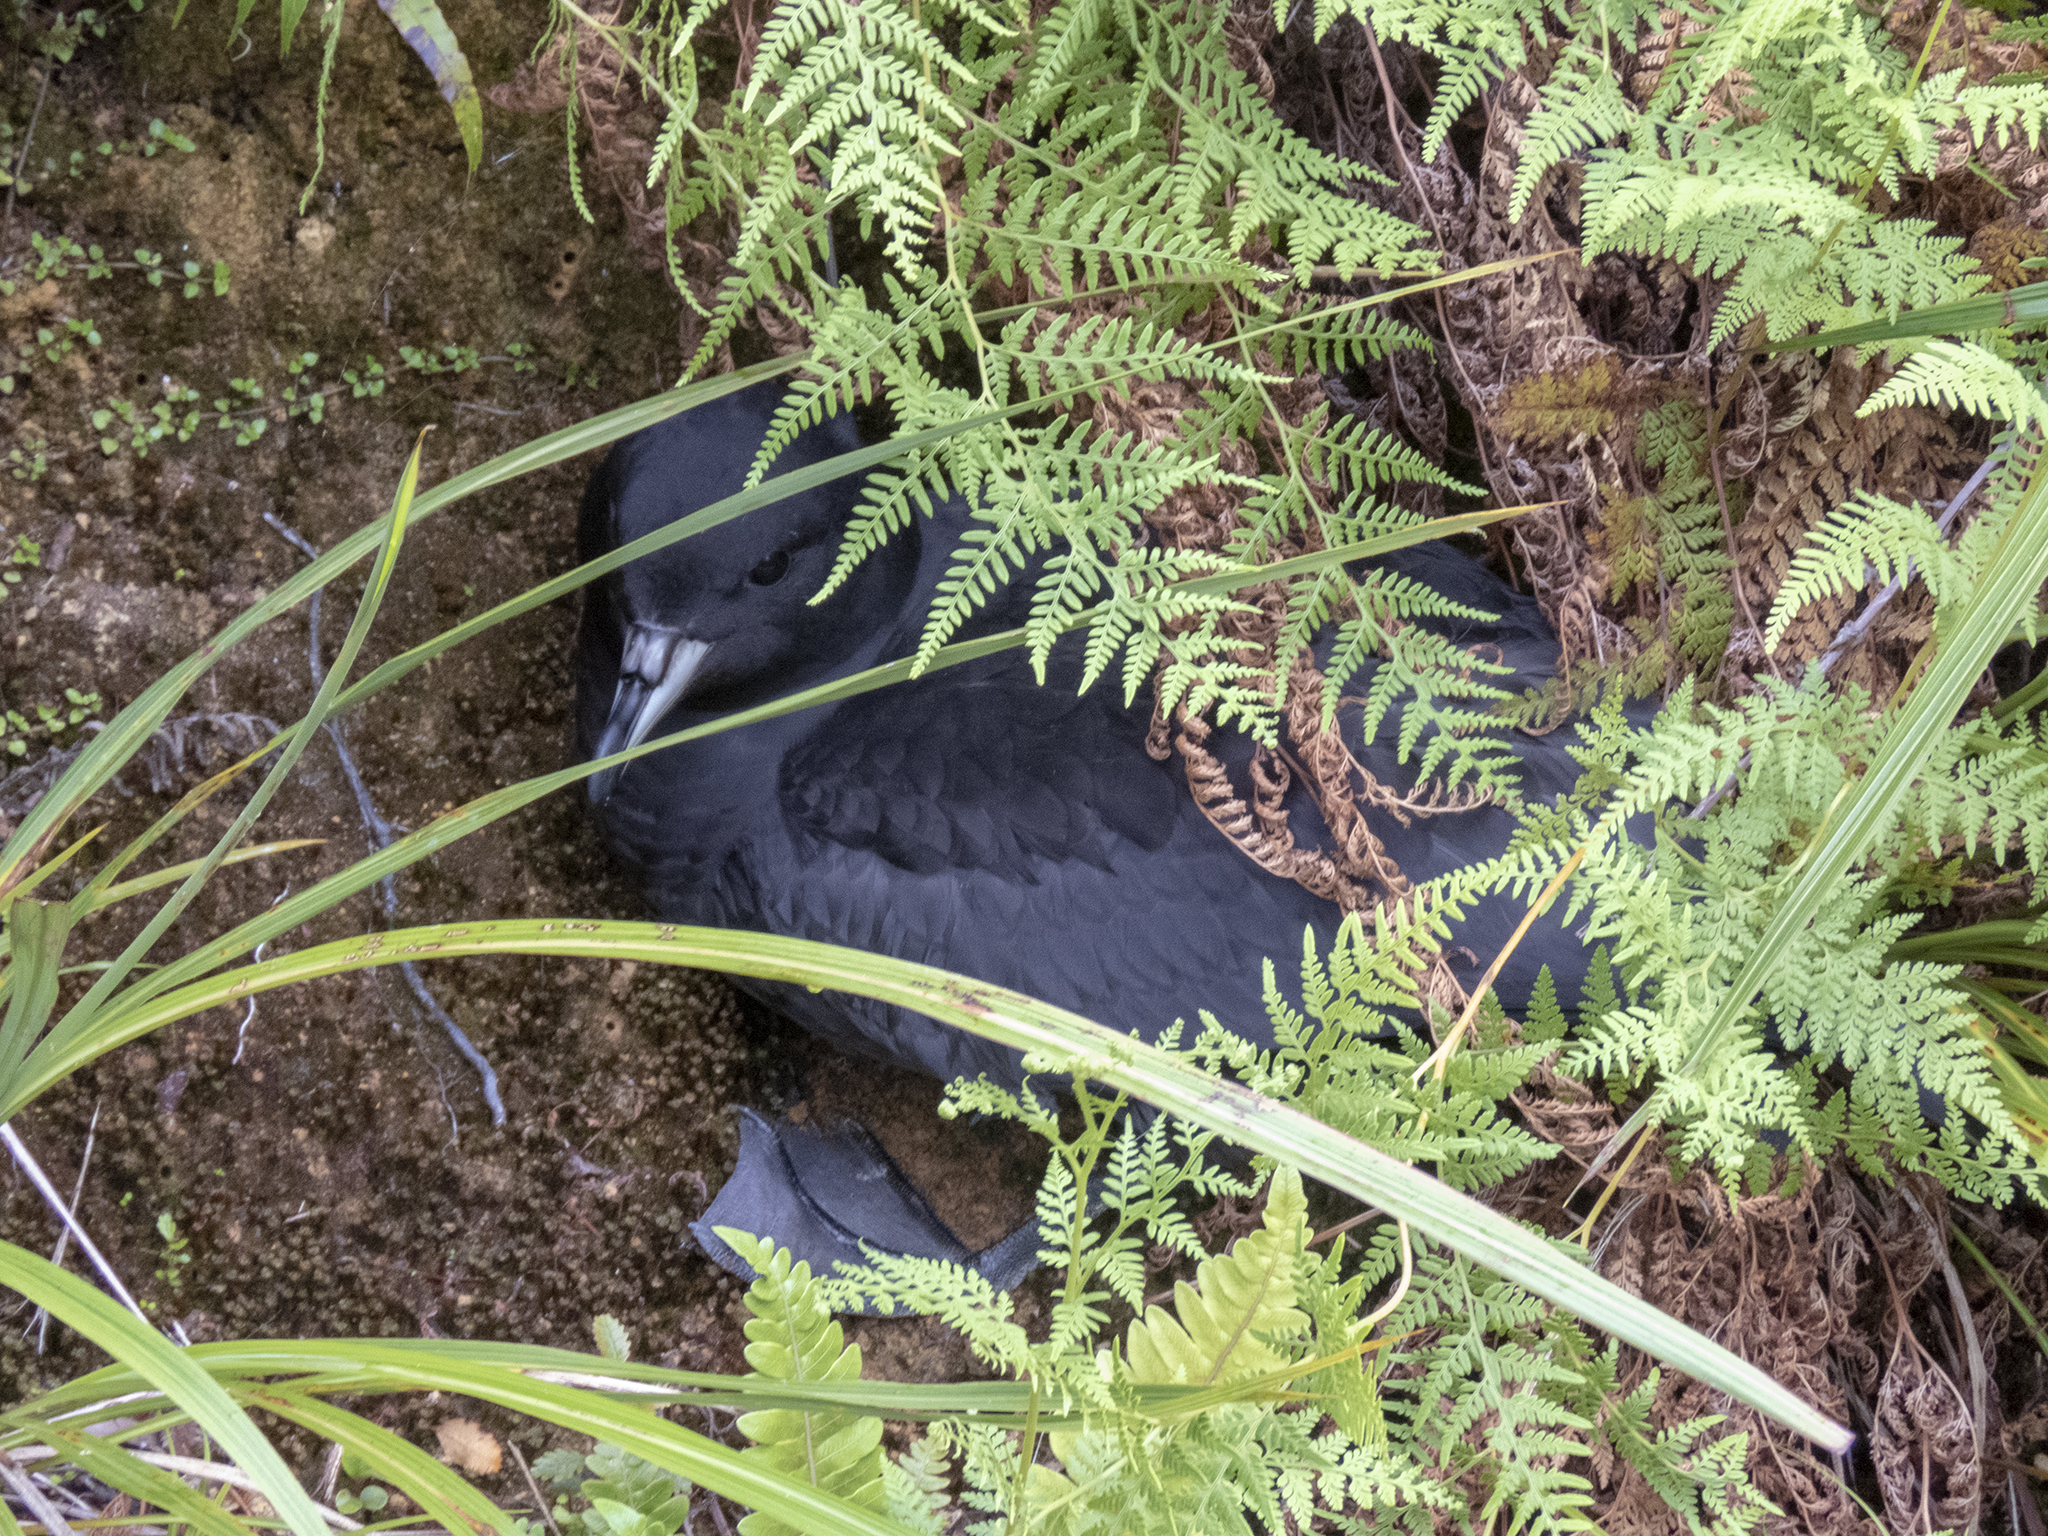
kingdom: Animalia
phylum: Chordata
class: Aves
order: Procellariiformes
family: Procellariidae
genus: Procellaria
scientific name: Procellaria westlandica
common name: Westland petrel
